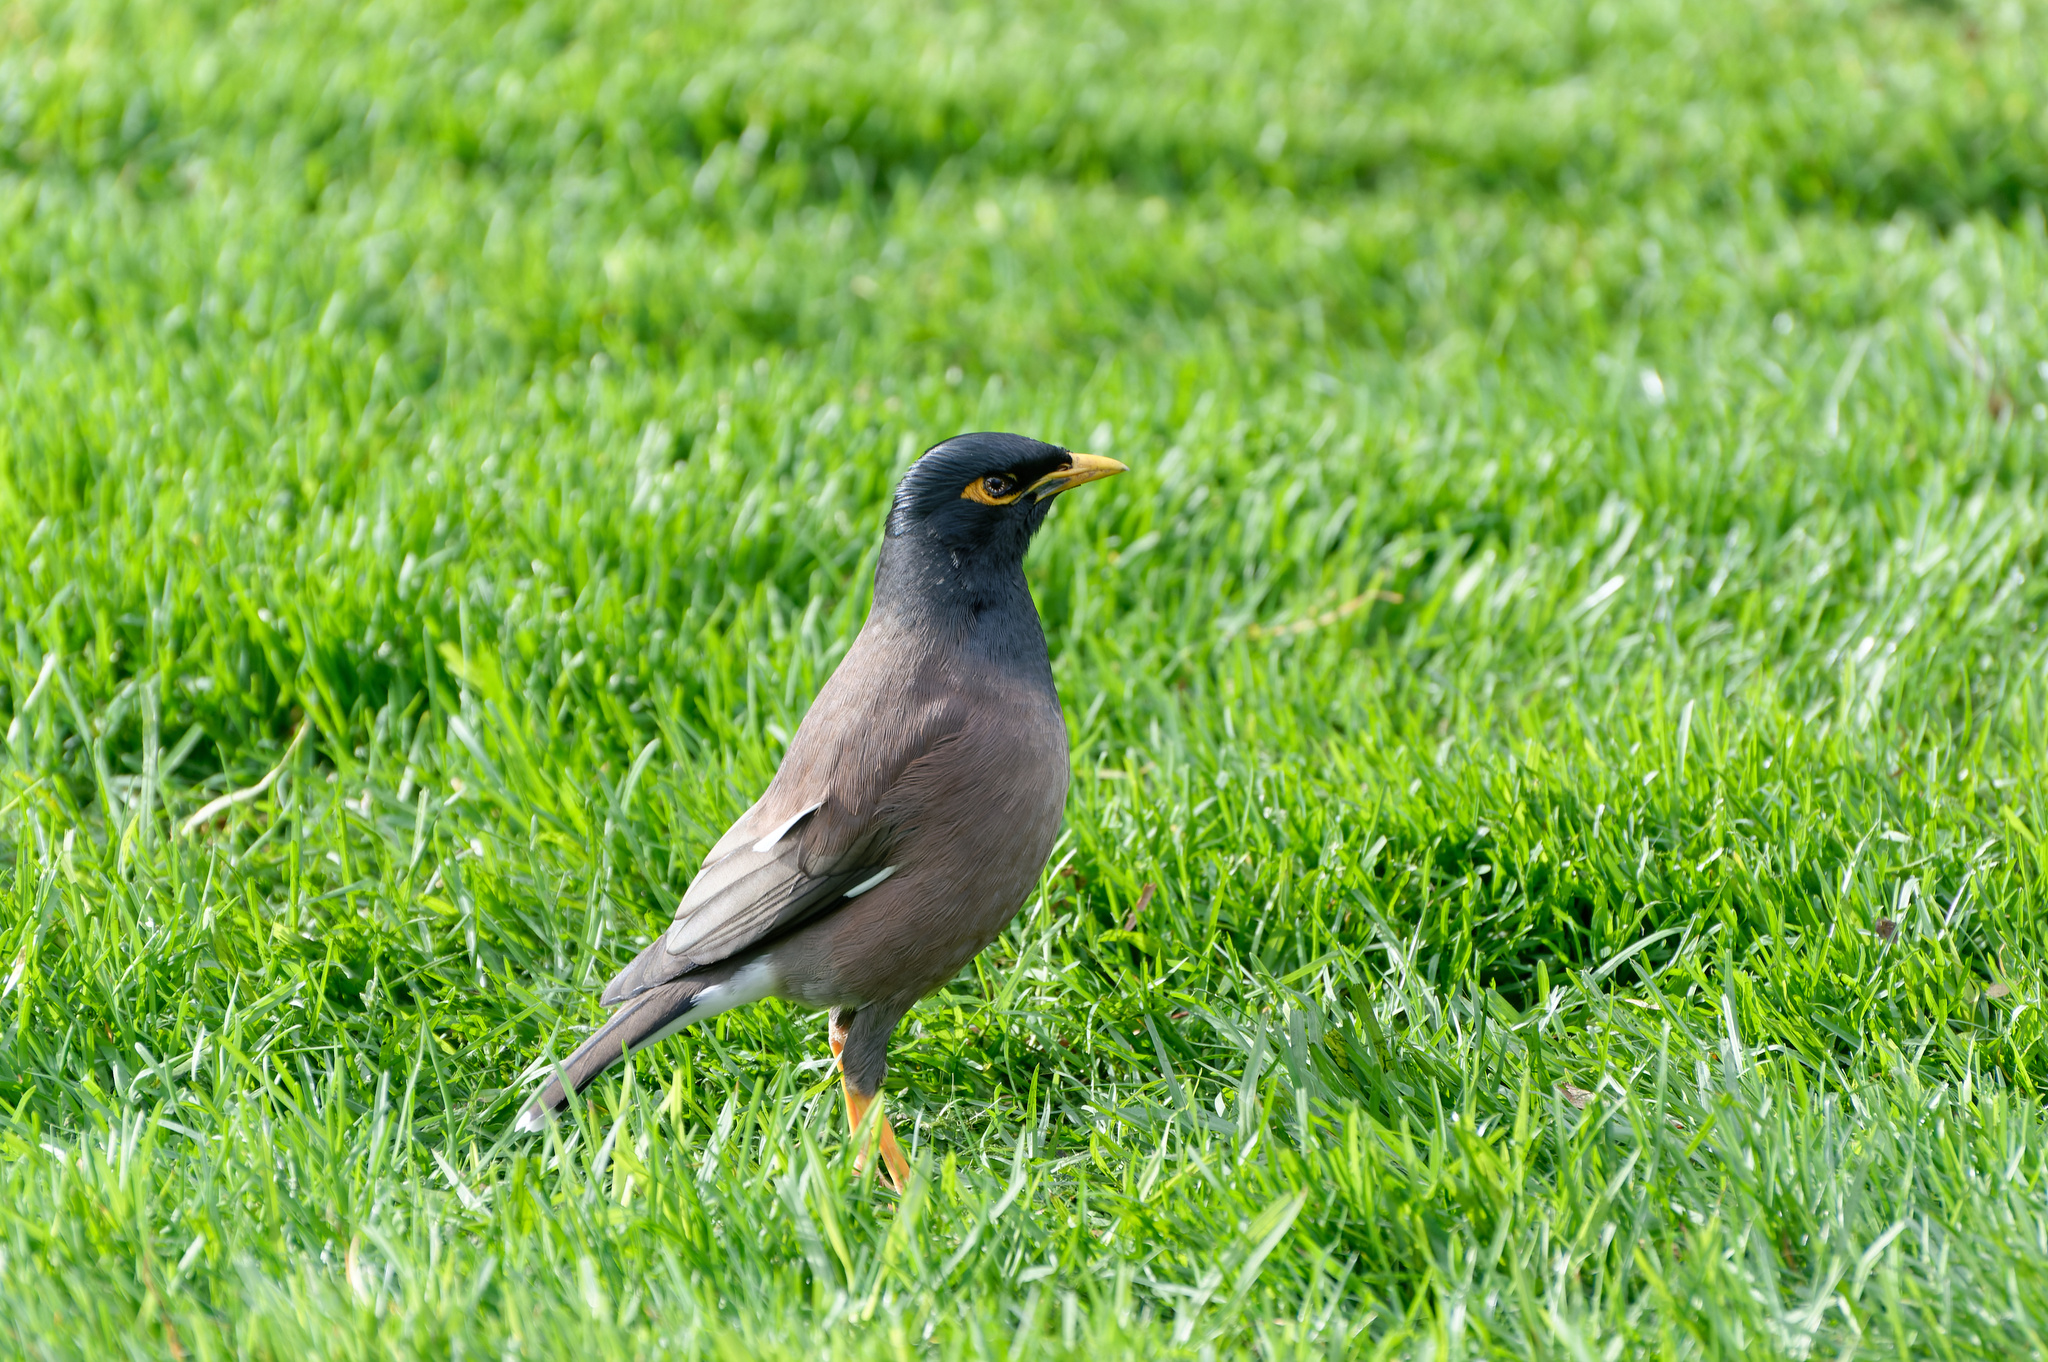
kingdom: Animalia
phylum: Chordata
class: Aves
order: Passeriformes
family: Sturnidae
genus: Acridotheres
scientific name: Acridotheres tristis
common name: Common myna
